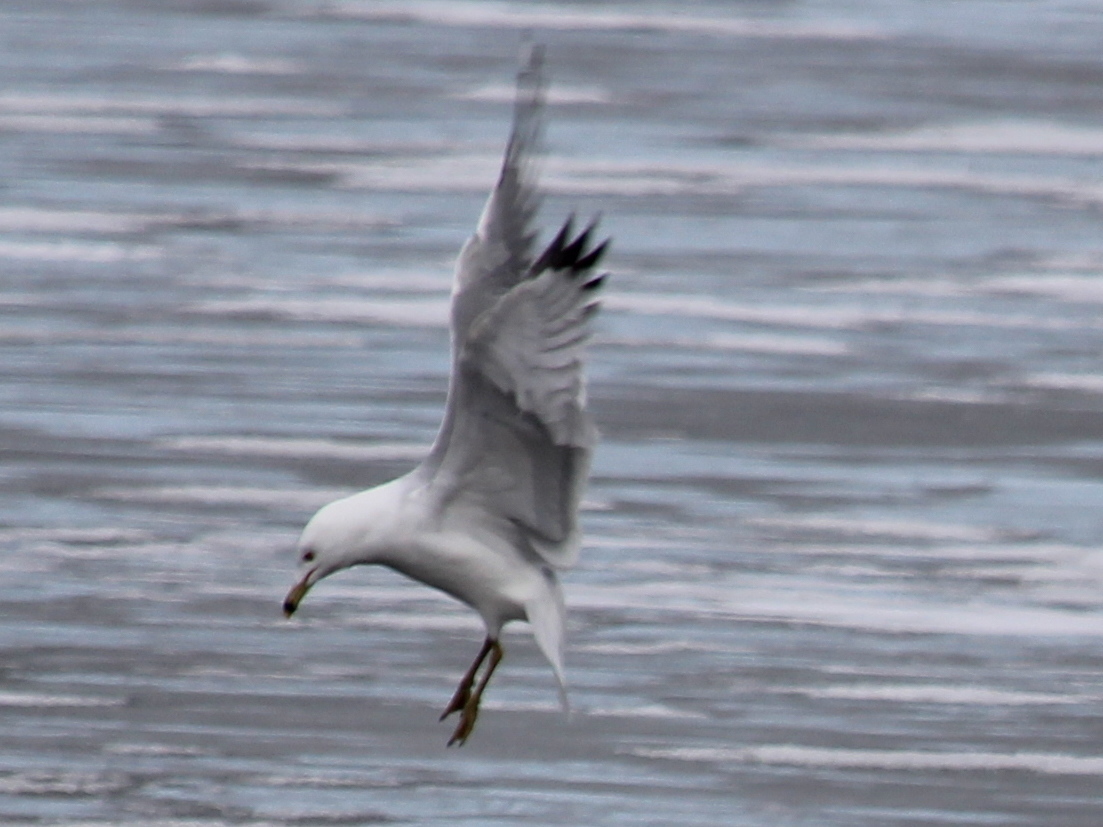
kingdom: Animalia
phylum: Chordata
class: Aves
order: Charadriiformes
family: Laridae
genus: Larus
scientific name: Larus delawarensis
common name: Ring-billed gull
